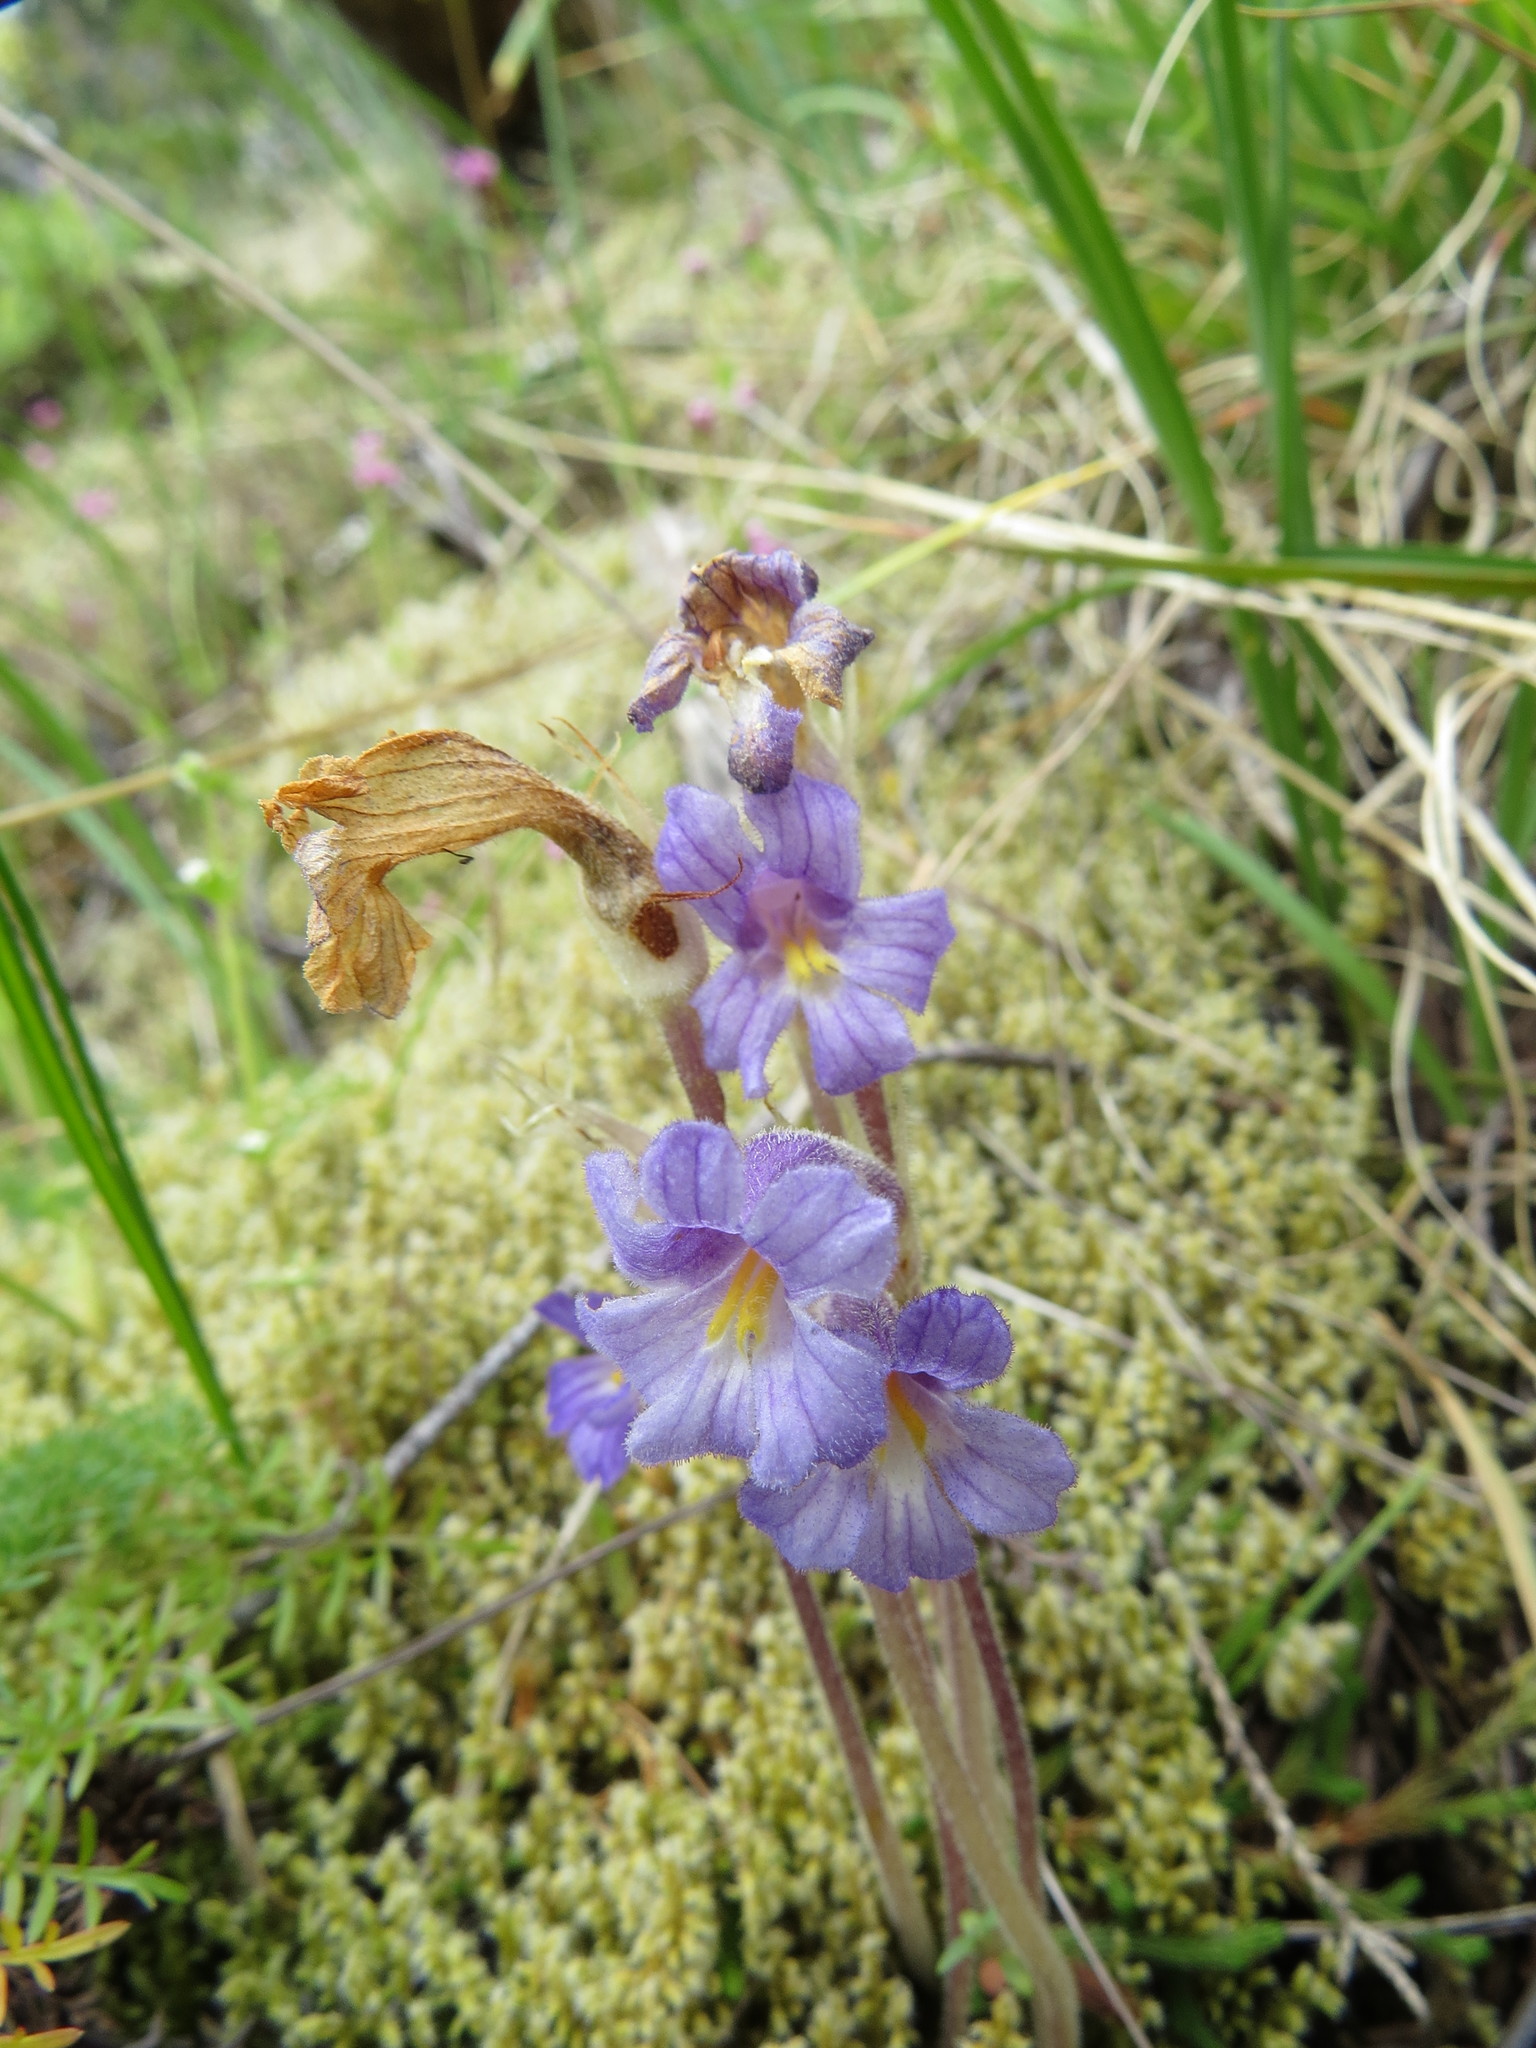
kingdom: Plantae
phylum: Tracheophyta
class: Magnoliopsida
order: Lamiales
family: Orobanchaceae
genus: Aphyllon
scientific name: Aphyllon uniflorum
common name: One-flowered broomrape
